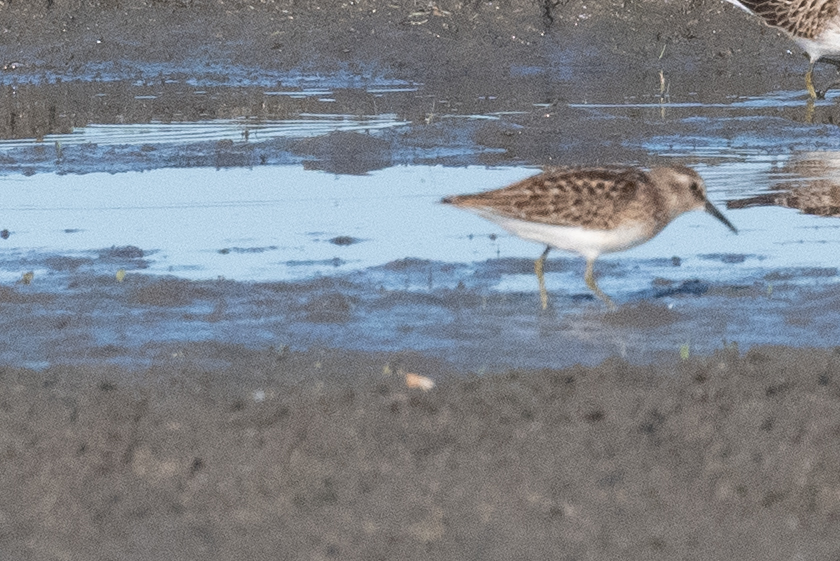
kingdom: Animalia
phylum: Chordata
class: Aves
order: Charadriiformes
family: Scolopacidae
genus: Calidris
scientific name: Calidris minutilla
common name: Least sandpiper
